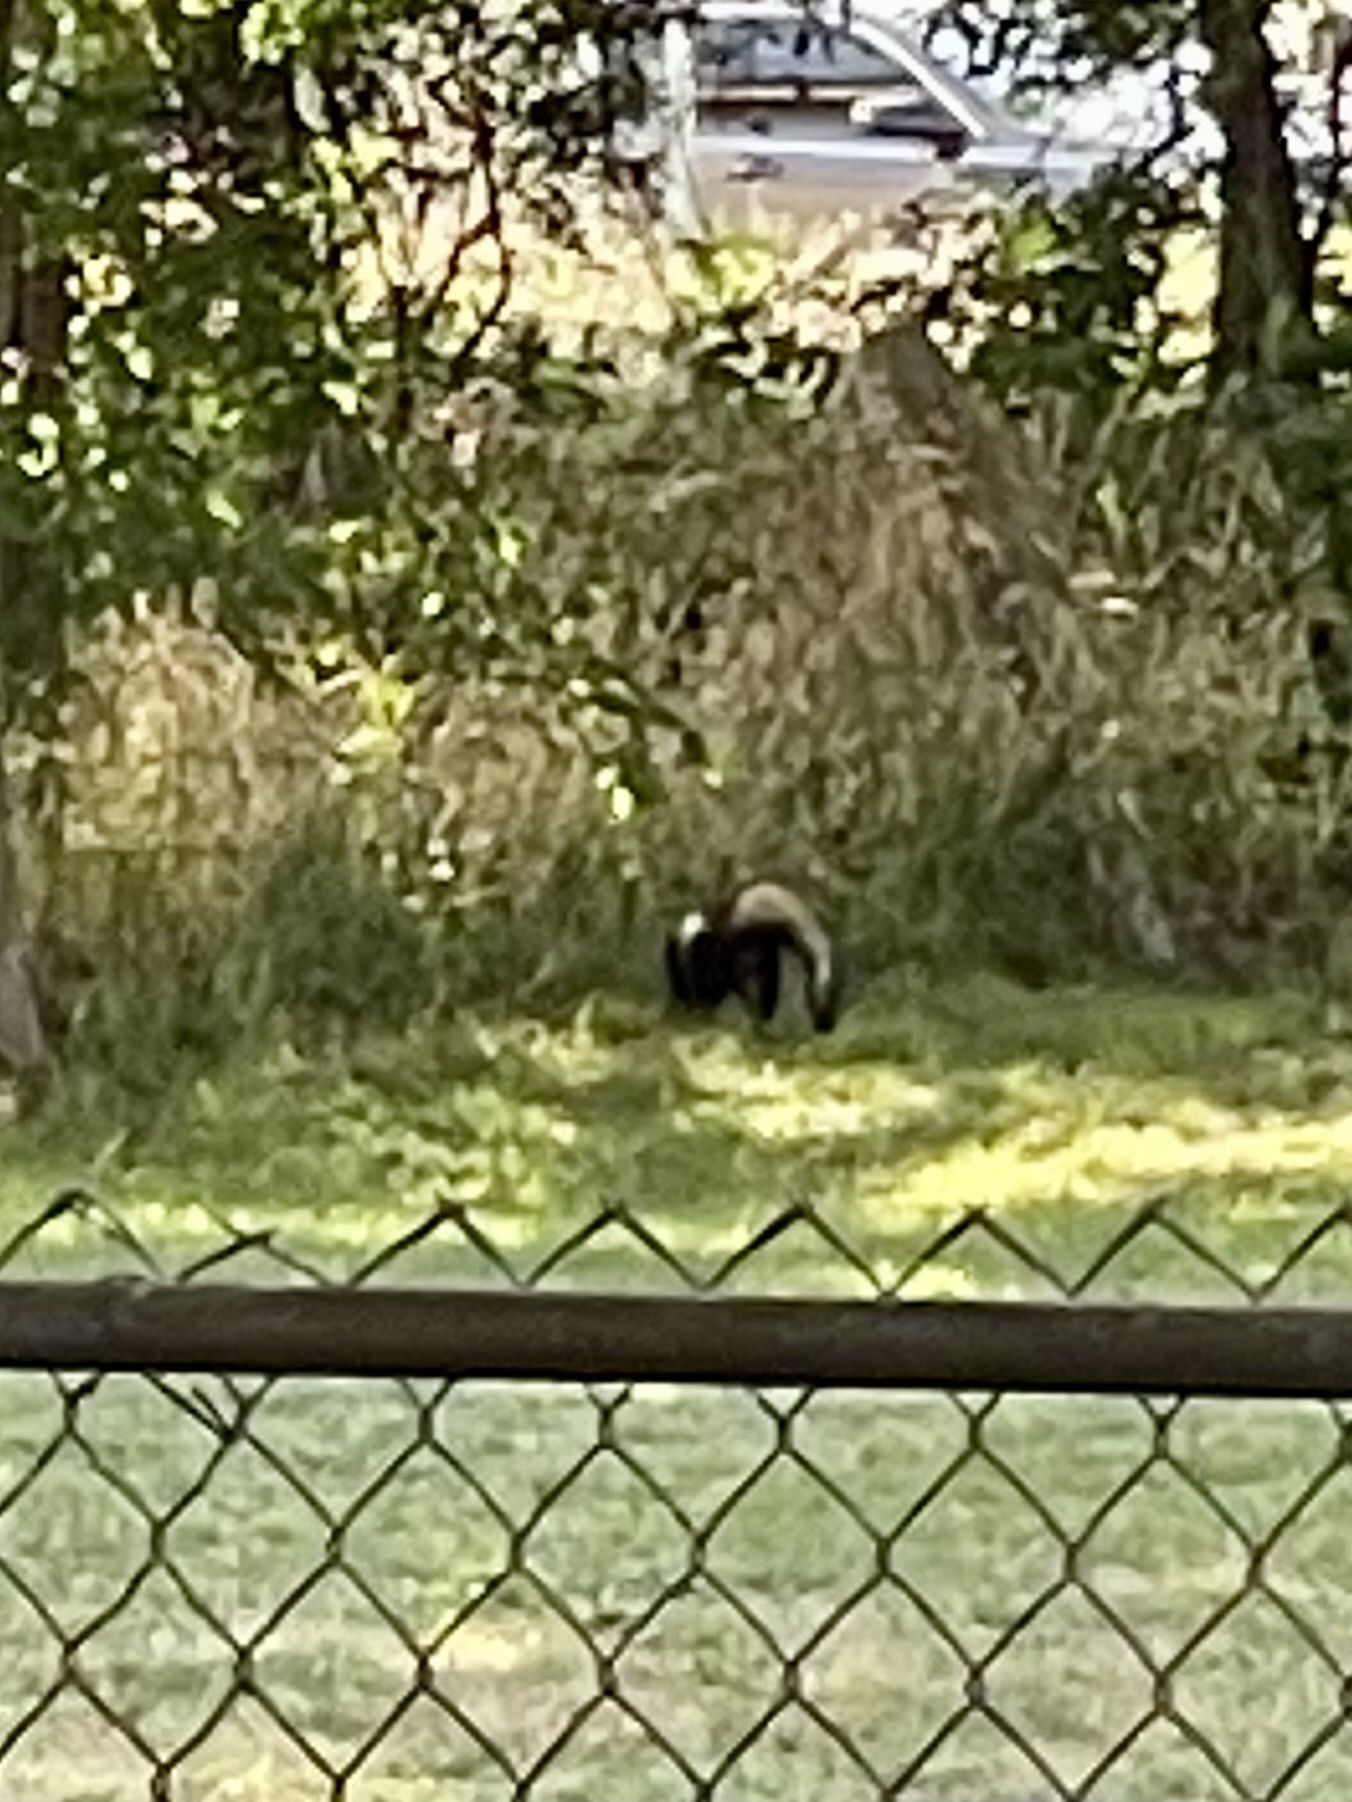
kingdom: Animalia
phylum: Chordata
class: Mammalia
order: Carnivora
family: Mephitidae
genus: Mephitis
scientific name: Mephitis mephitis
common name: Striped skunk
